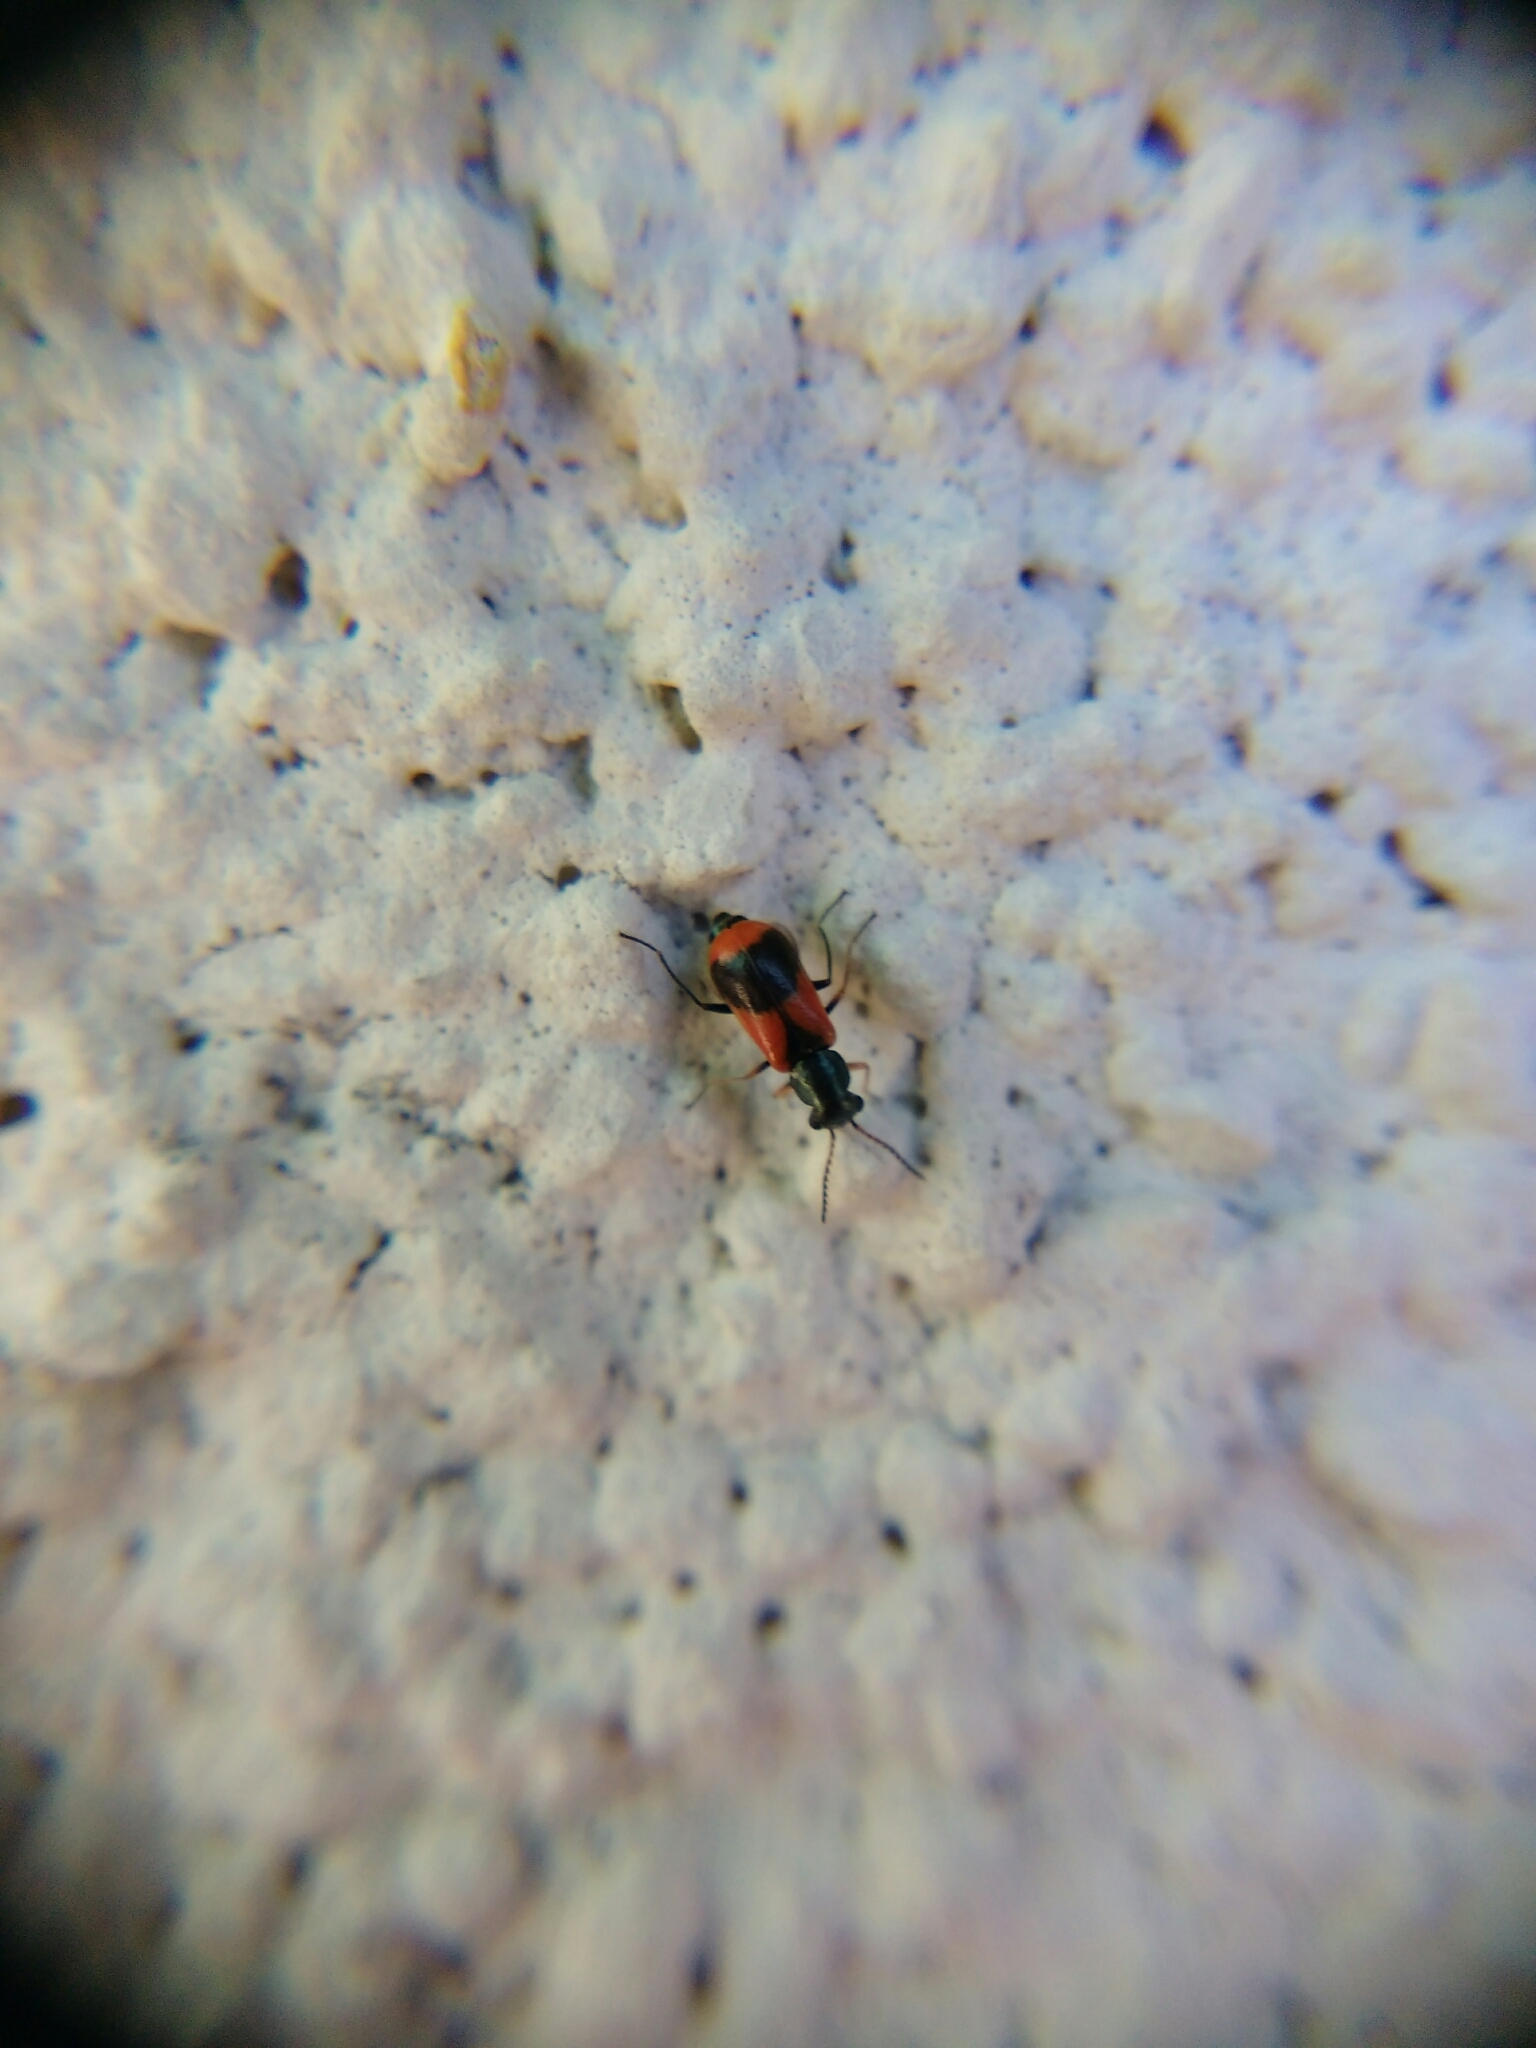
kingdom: Animalia
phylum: Arthropoda
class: Insecta
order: Coleoptera
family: Melyridae
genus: Anthocomus
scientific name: Anthocomus equestris
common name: Black-banded soft-winged flower beetle
